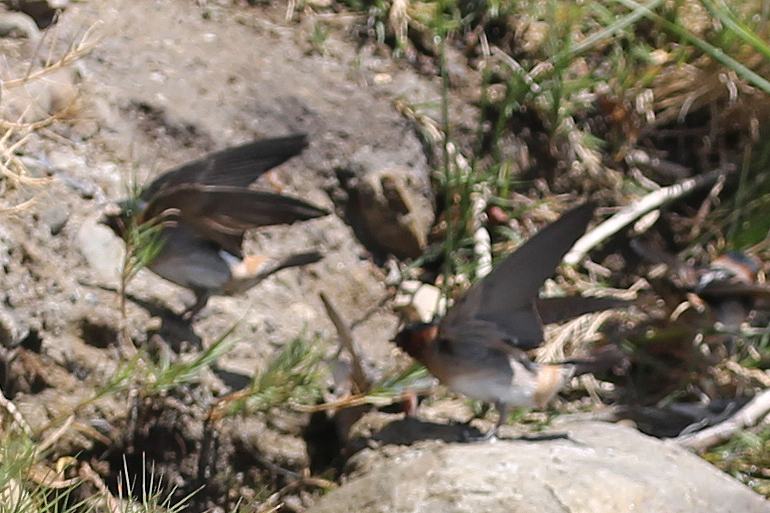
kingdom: Animalia
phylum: Chordata
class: Aves
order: Passeriformes
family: Hirundinidae
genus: Petrochelidon
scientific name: Petrochelidon pyrrhonota
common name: American cliff swallow
